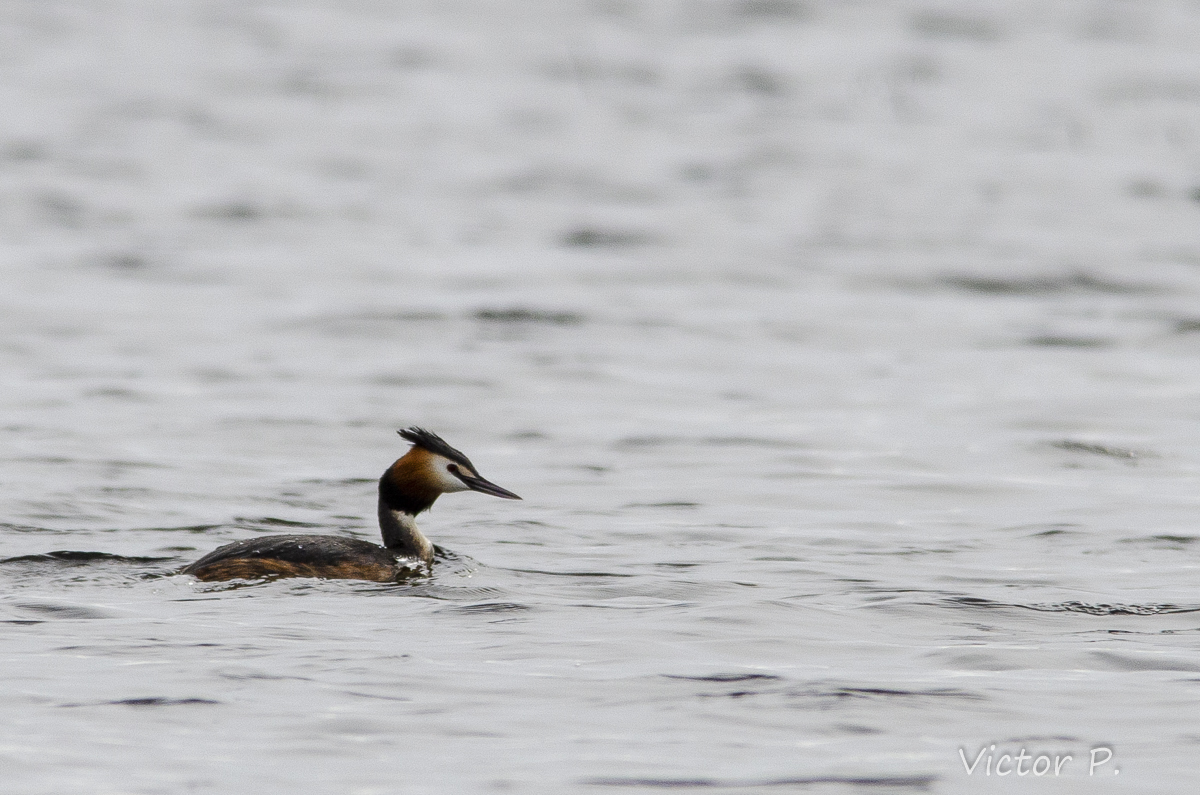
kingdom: Animalia
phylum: Chordata
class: Aves
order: Podicipediformes
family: Podicipedidae
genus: Podiceps
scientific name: Podiceps cristatus
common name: Great crested grebe
